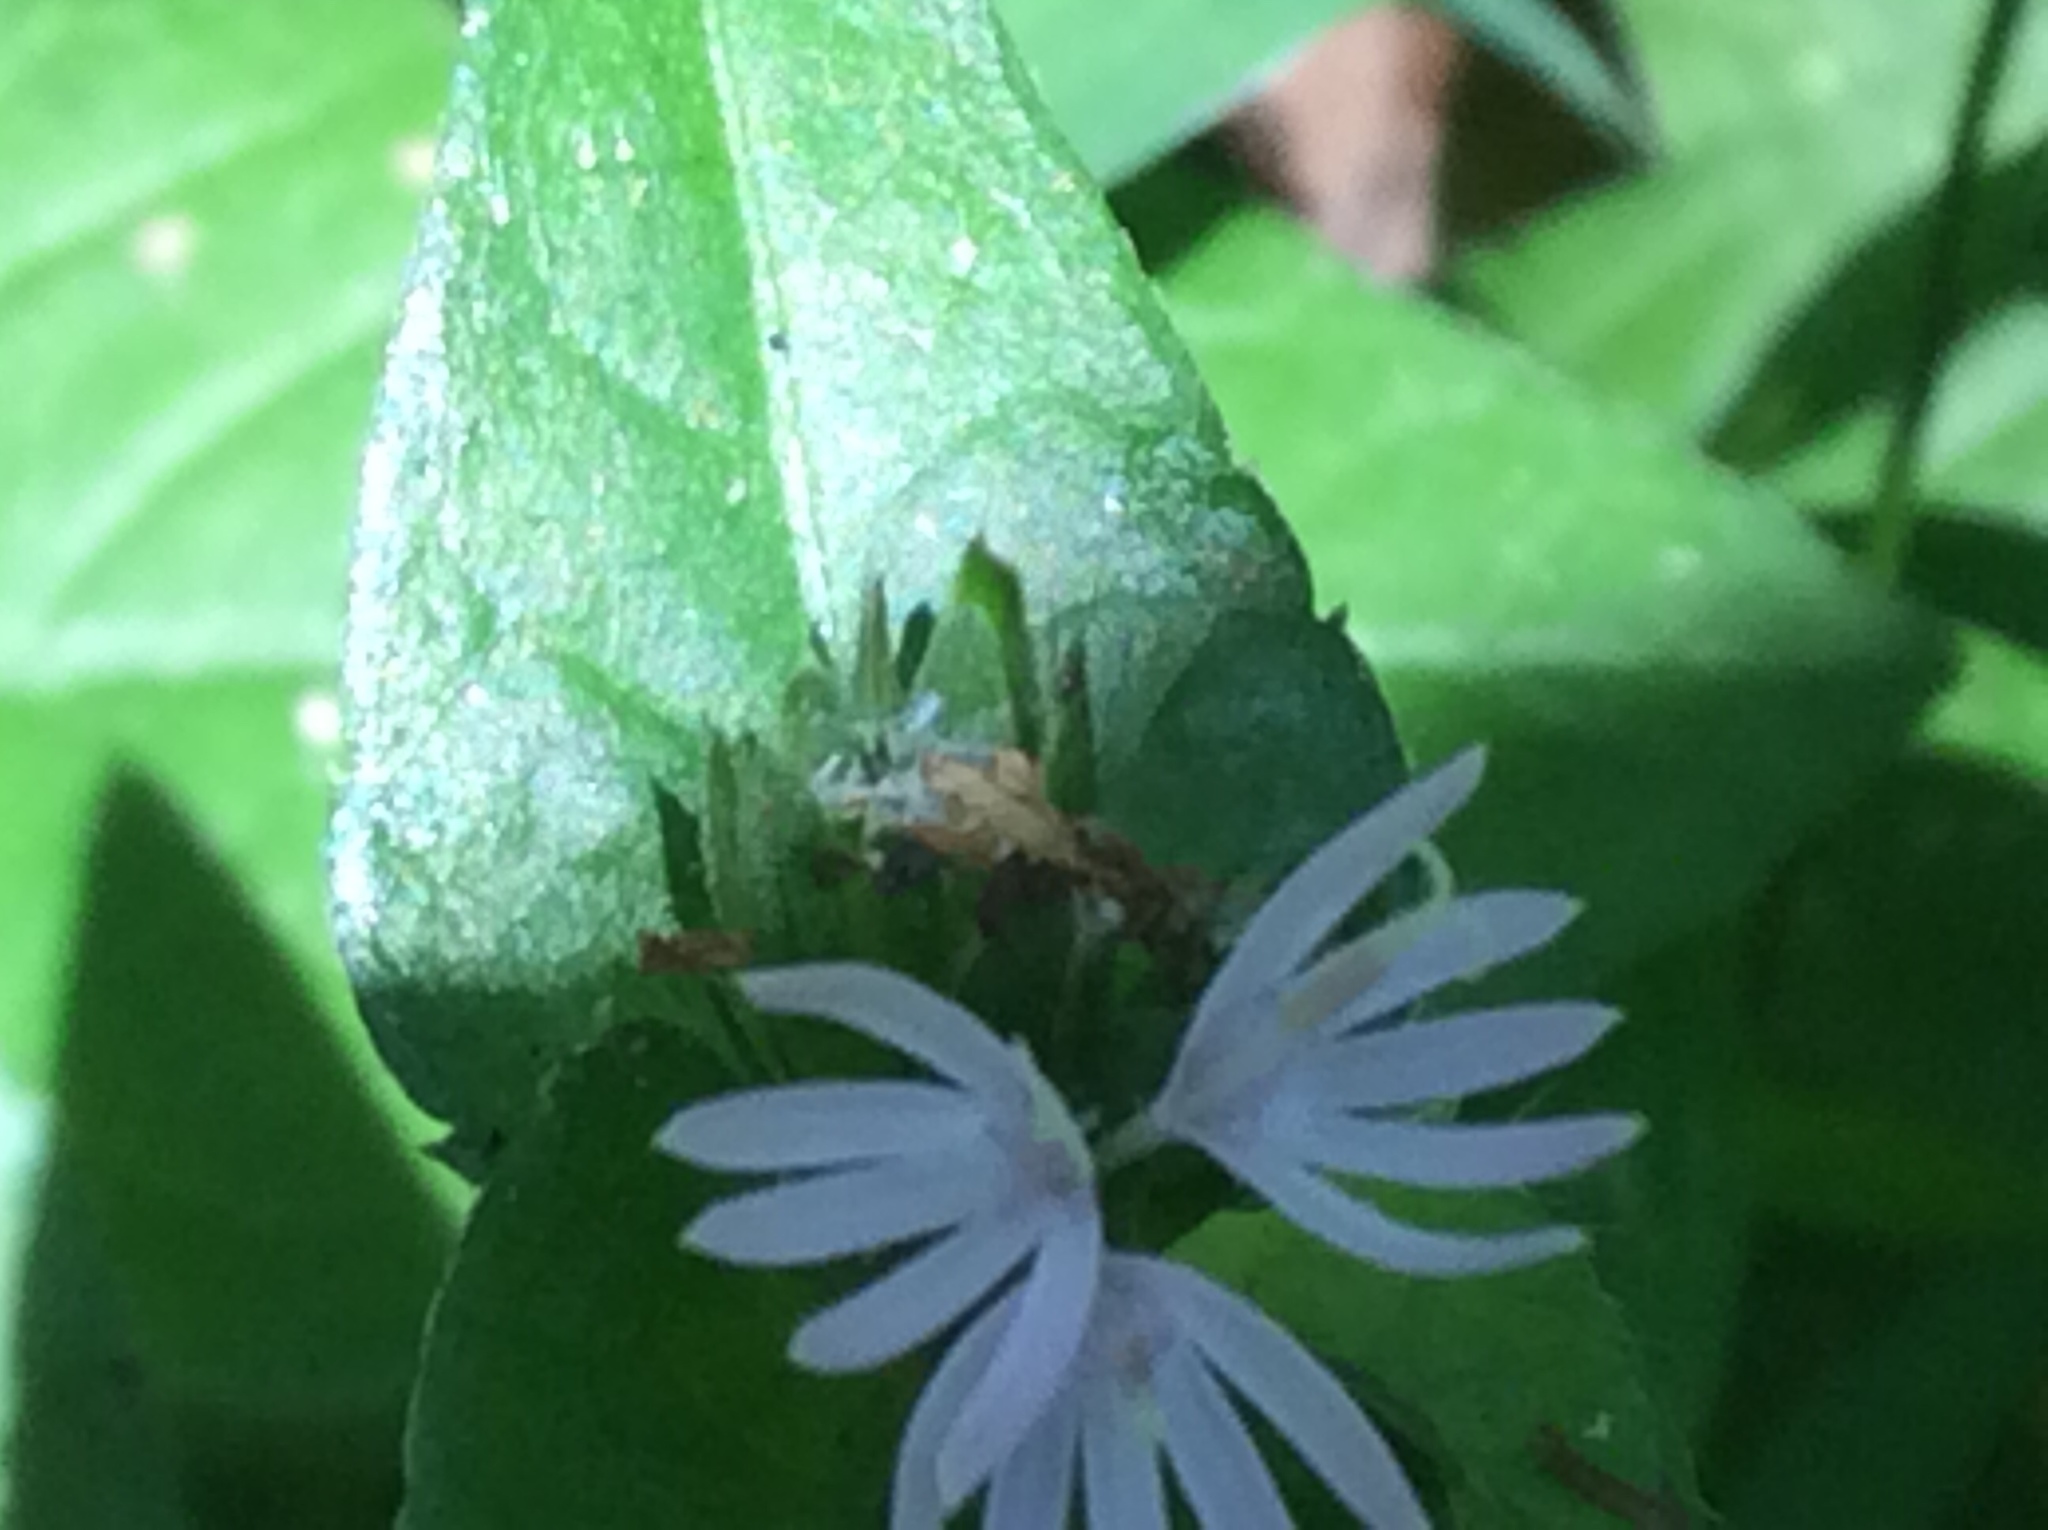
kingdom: Plantae
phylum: Tracheophyta
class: Magnoliopsida
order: Asterales
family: Asteraceae
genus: Elephantopus
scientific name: Elephantopus tomentosus
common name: Tobacco-weed
